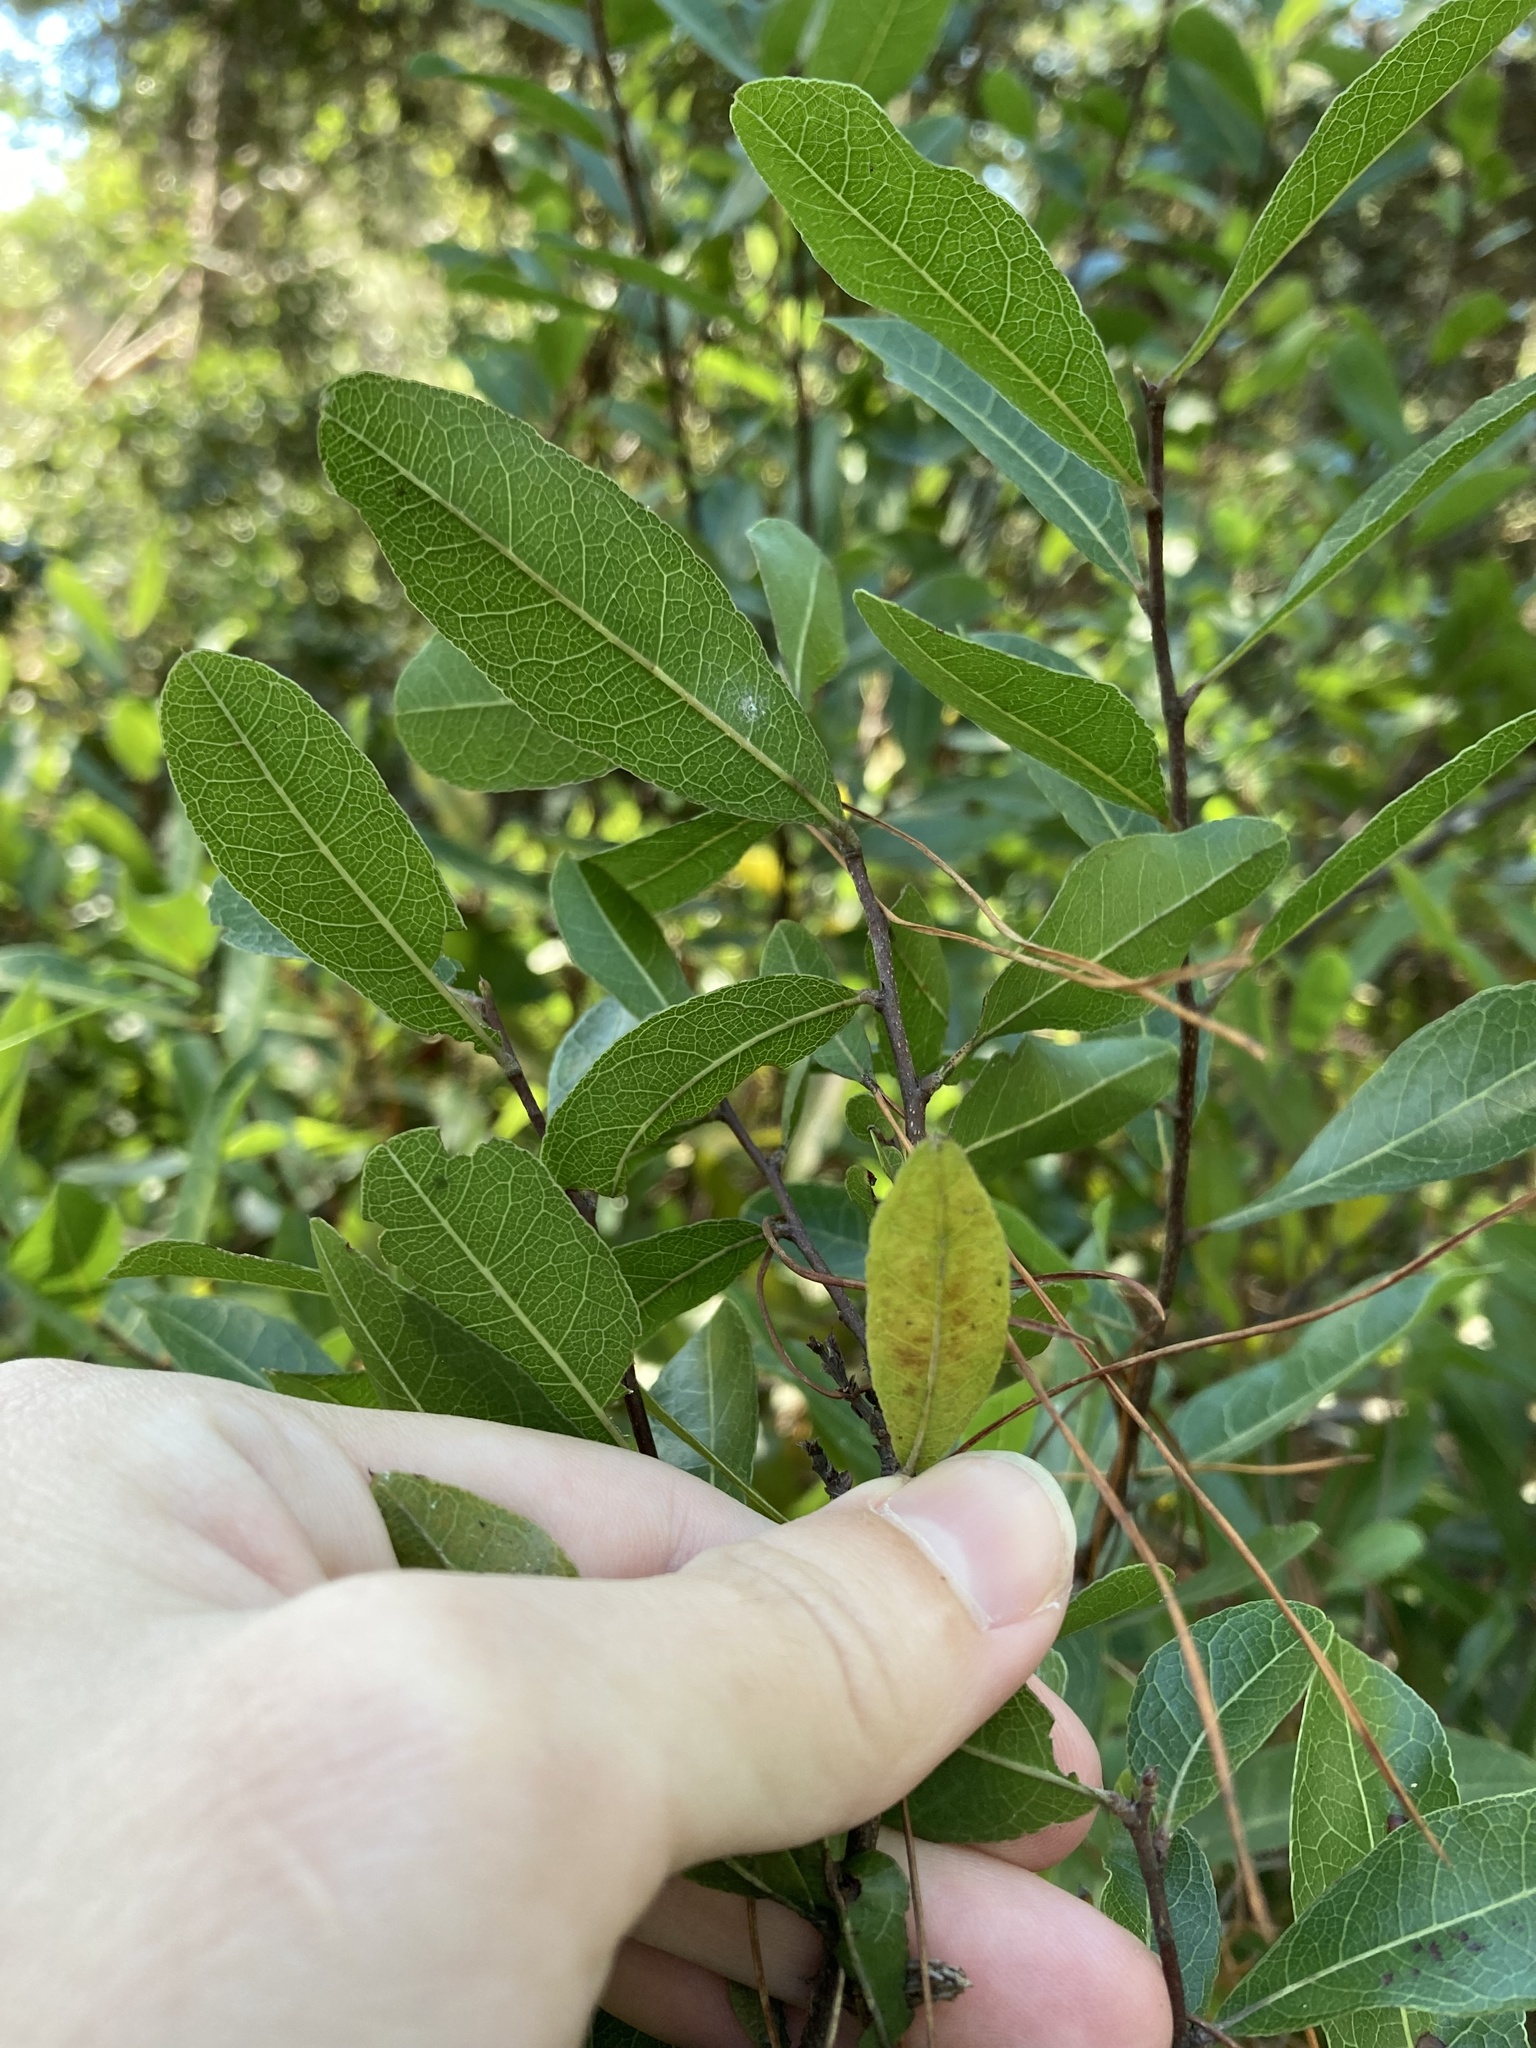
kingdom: Plantae
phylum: Tracheophyta
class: Magnoliopsida
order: Malpighiales
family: Chrysobalanaceae
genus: Geobalanus
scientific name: Geobalanus oblongifolius
